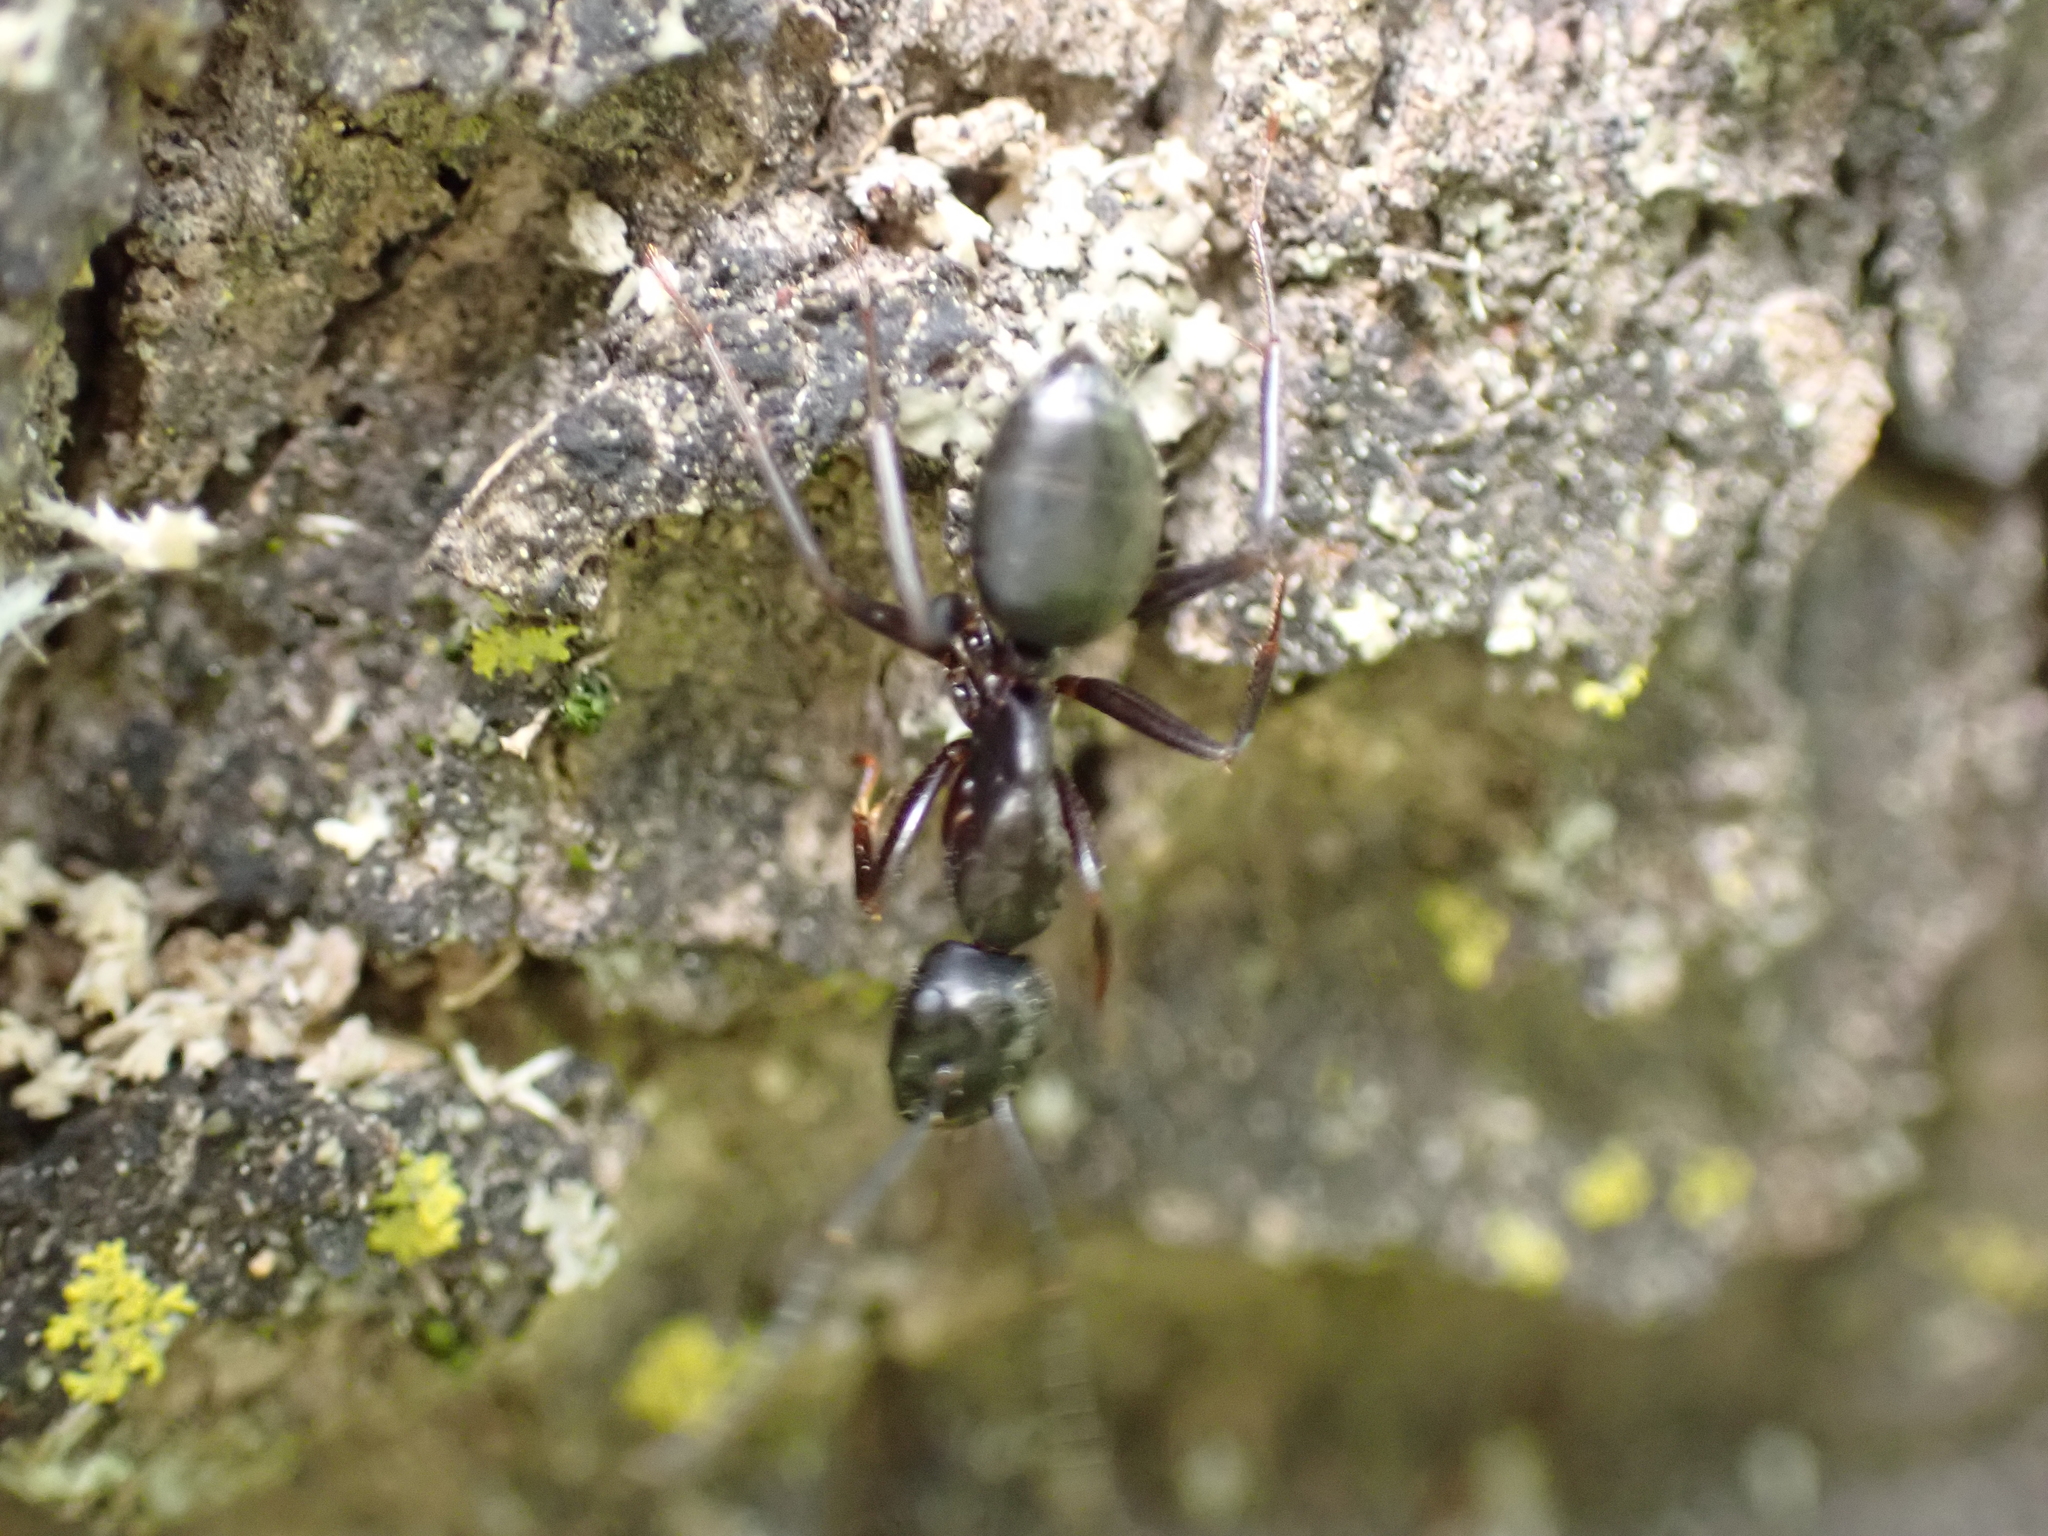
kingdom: Animalia
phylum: Arthropoda
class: Insecta
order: Hymenoptera
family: Formicidae
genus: Camponotus
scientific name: Camponotus pennsylvanicus
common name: Black carpenter ant
